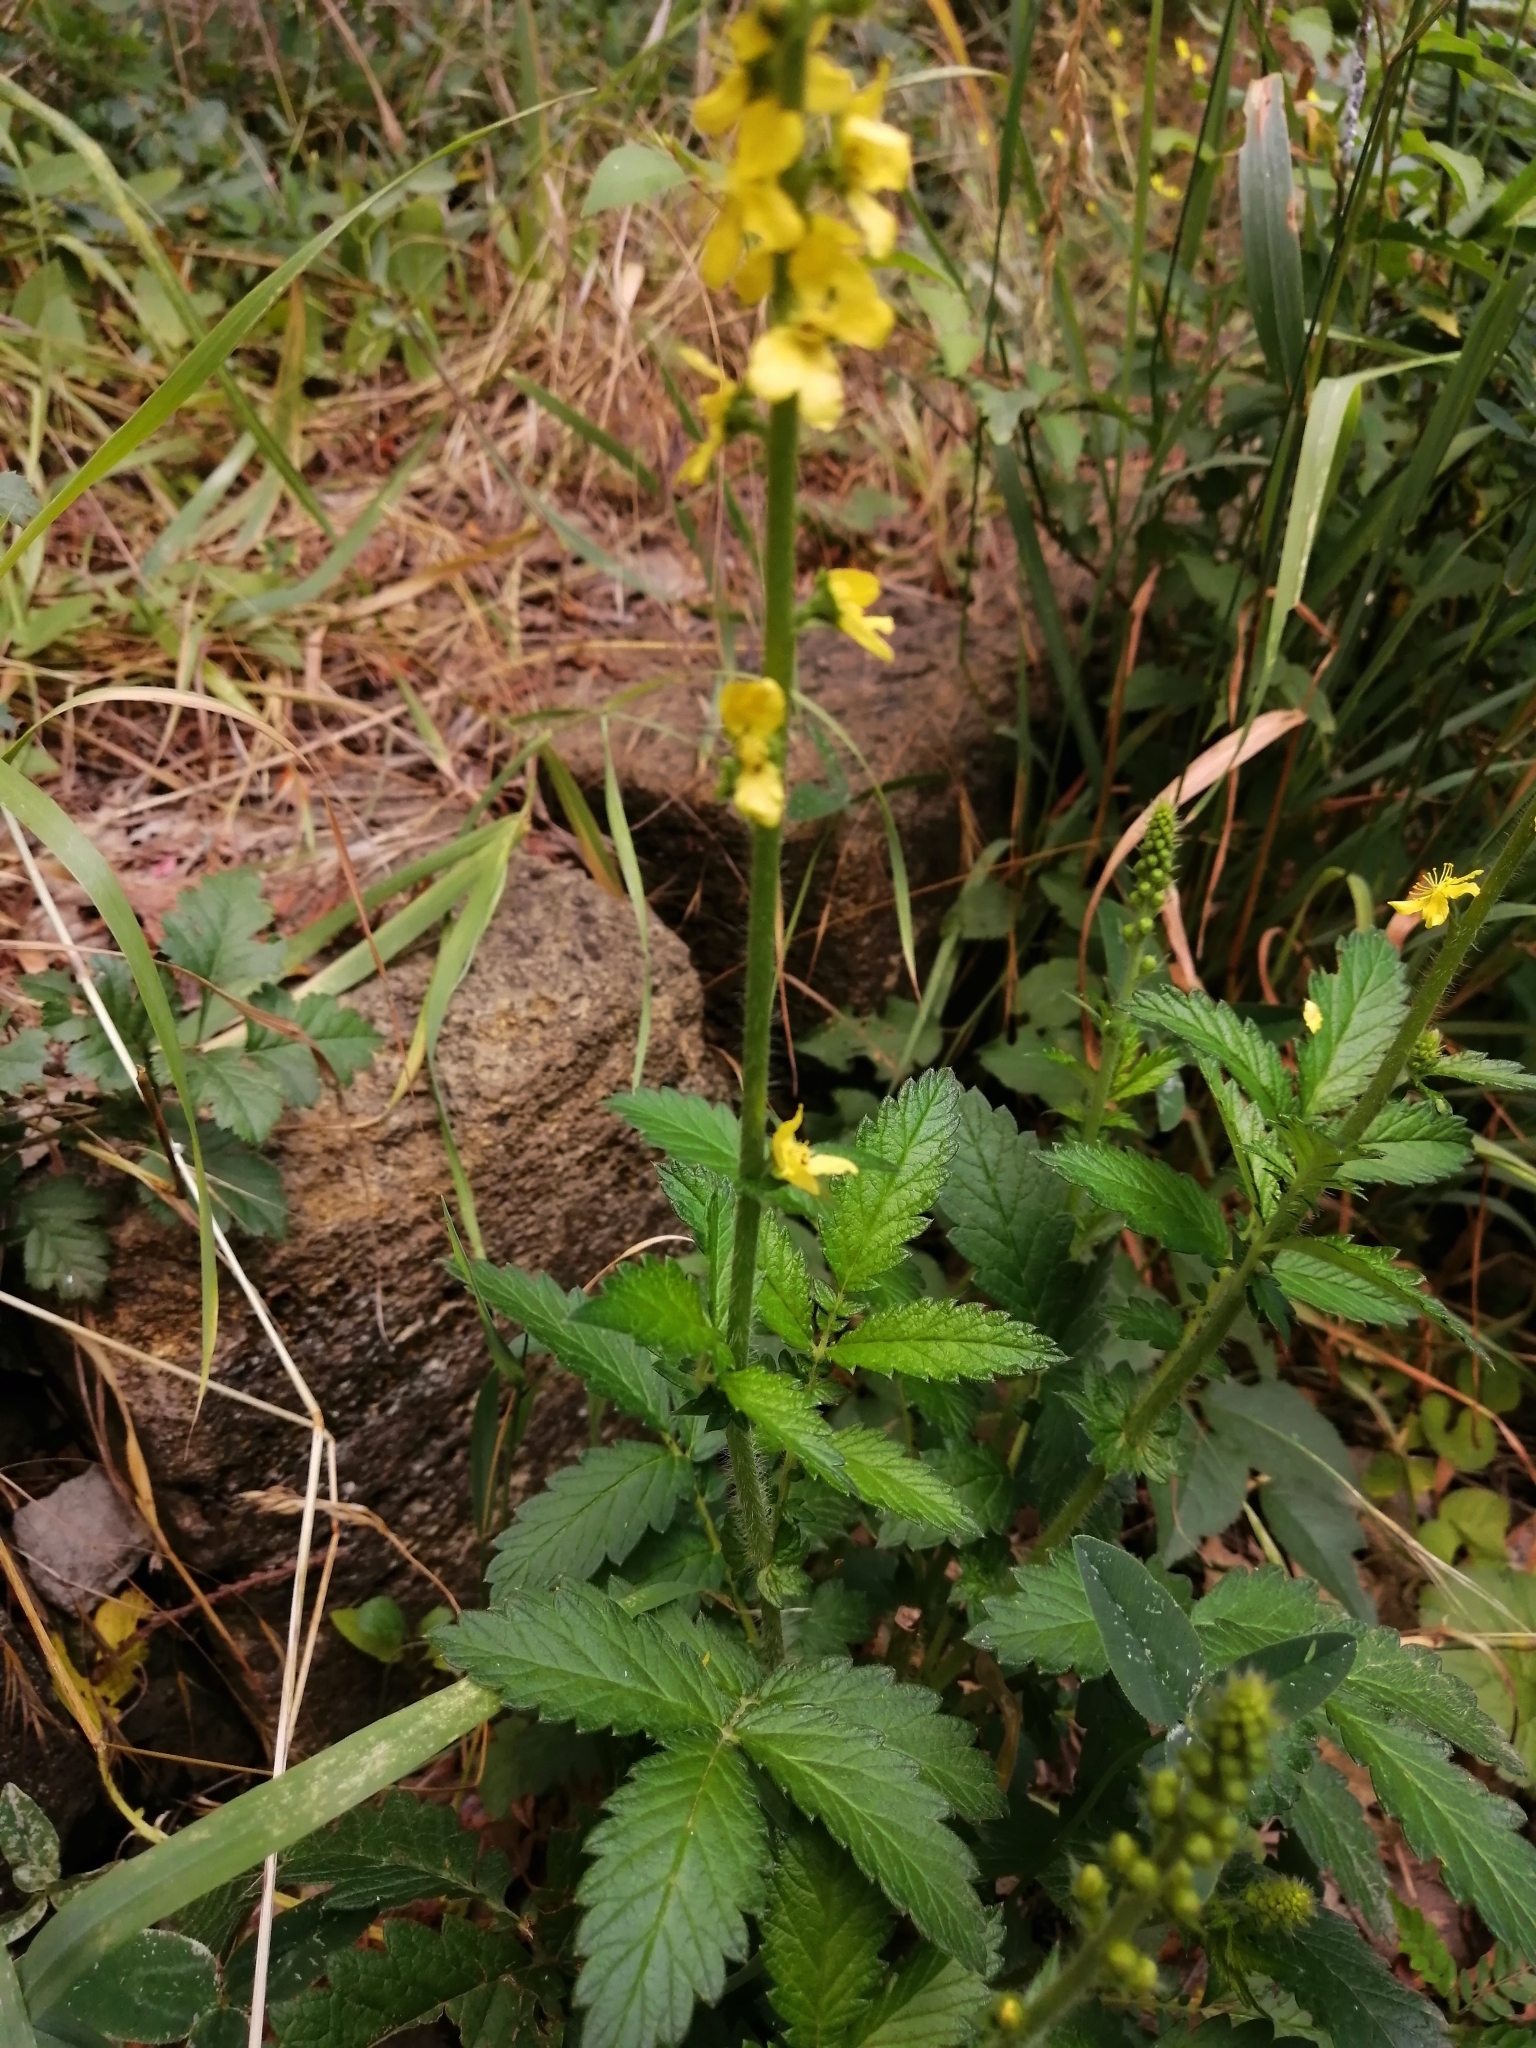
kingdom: Plantae
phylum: Tracheophyta
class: Magnoliopsida
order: Rosales
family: Rosaceae
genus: Agrimonia
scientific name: Agrimonia eupatoria
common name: Agrimony
